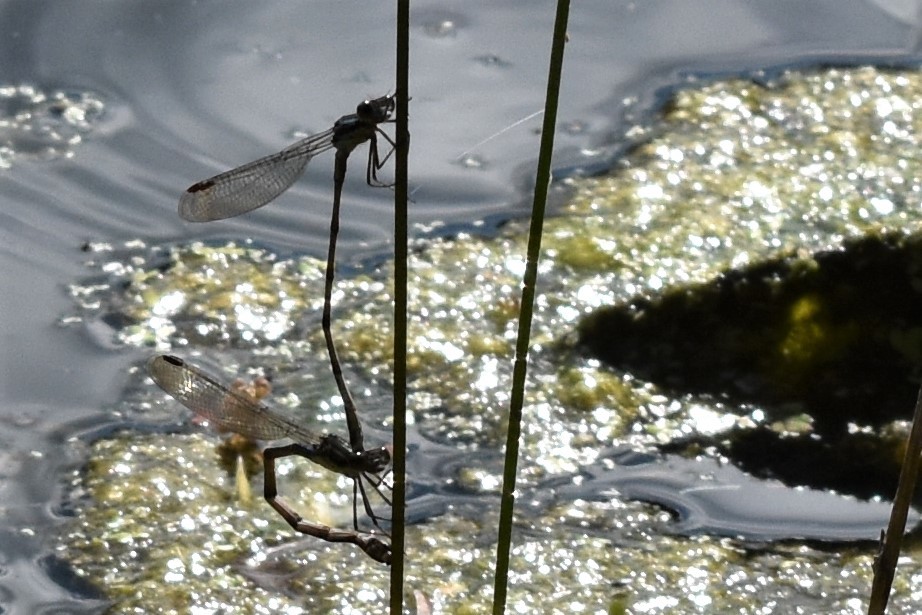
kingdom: Animalia
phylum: Arthropoda
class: Insecta
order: Odonata
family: Lestidae
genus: Austrolestes
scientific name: Austrolestes colensonis
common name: Blue damselfly
